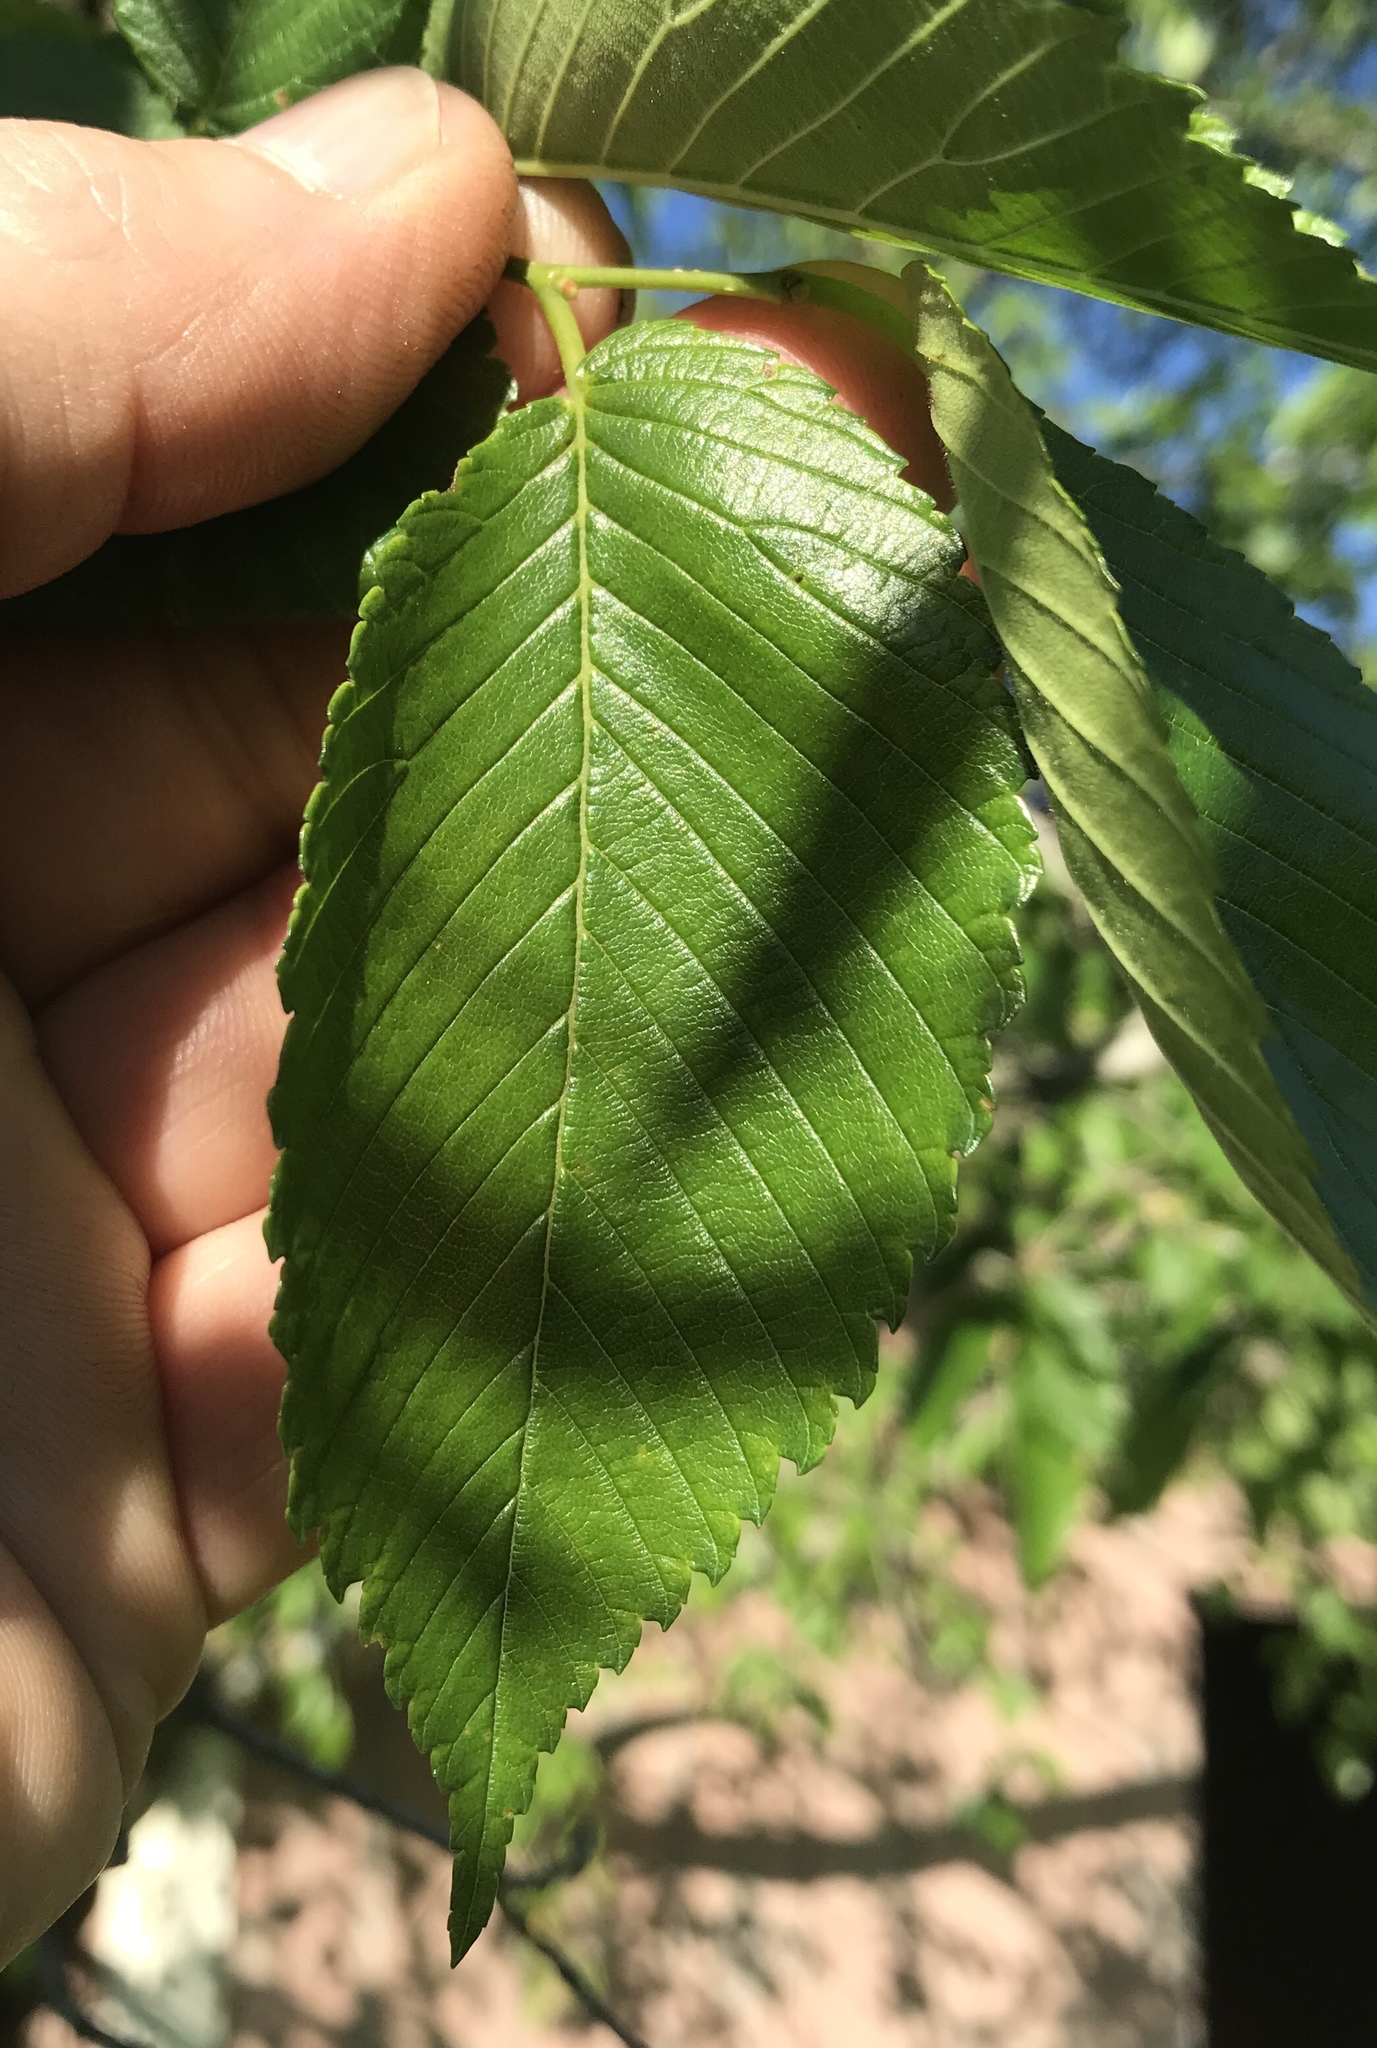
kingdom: Plantae
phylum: Tracheophyta
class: Magnoliopsida
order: Rosales
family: Ulmaceae
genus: Ulmus
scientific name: Ulmus americana
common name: American elm
